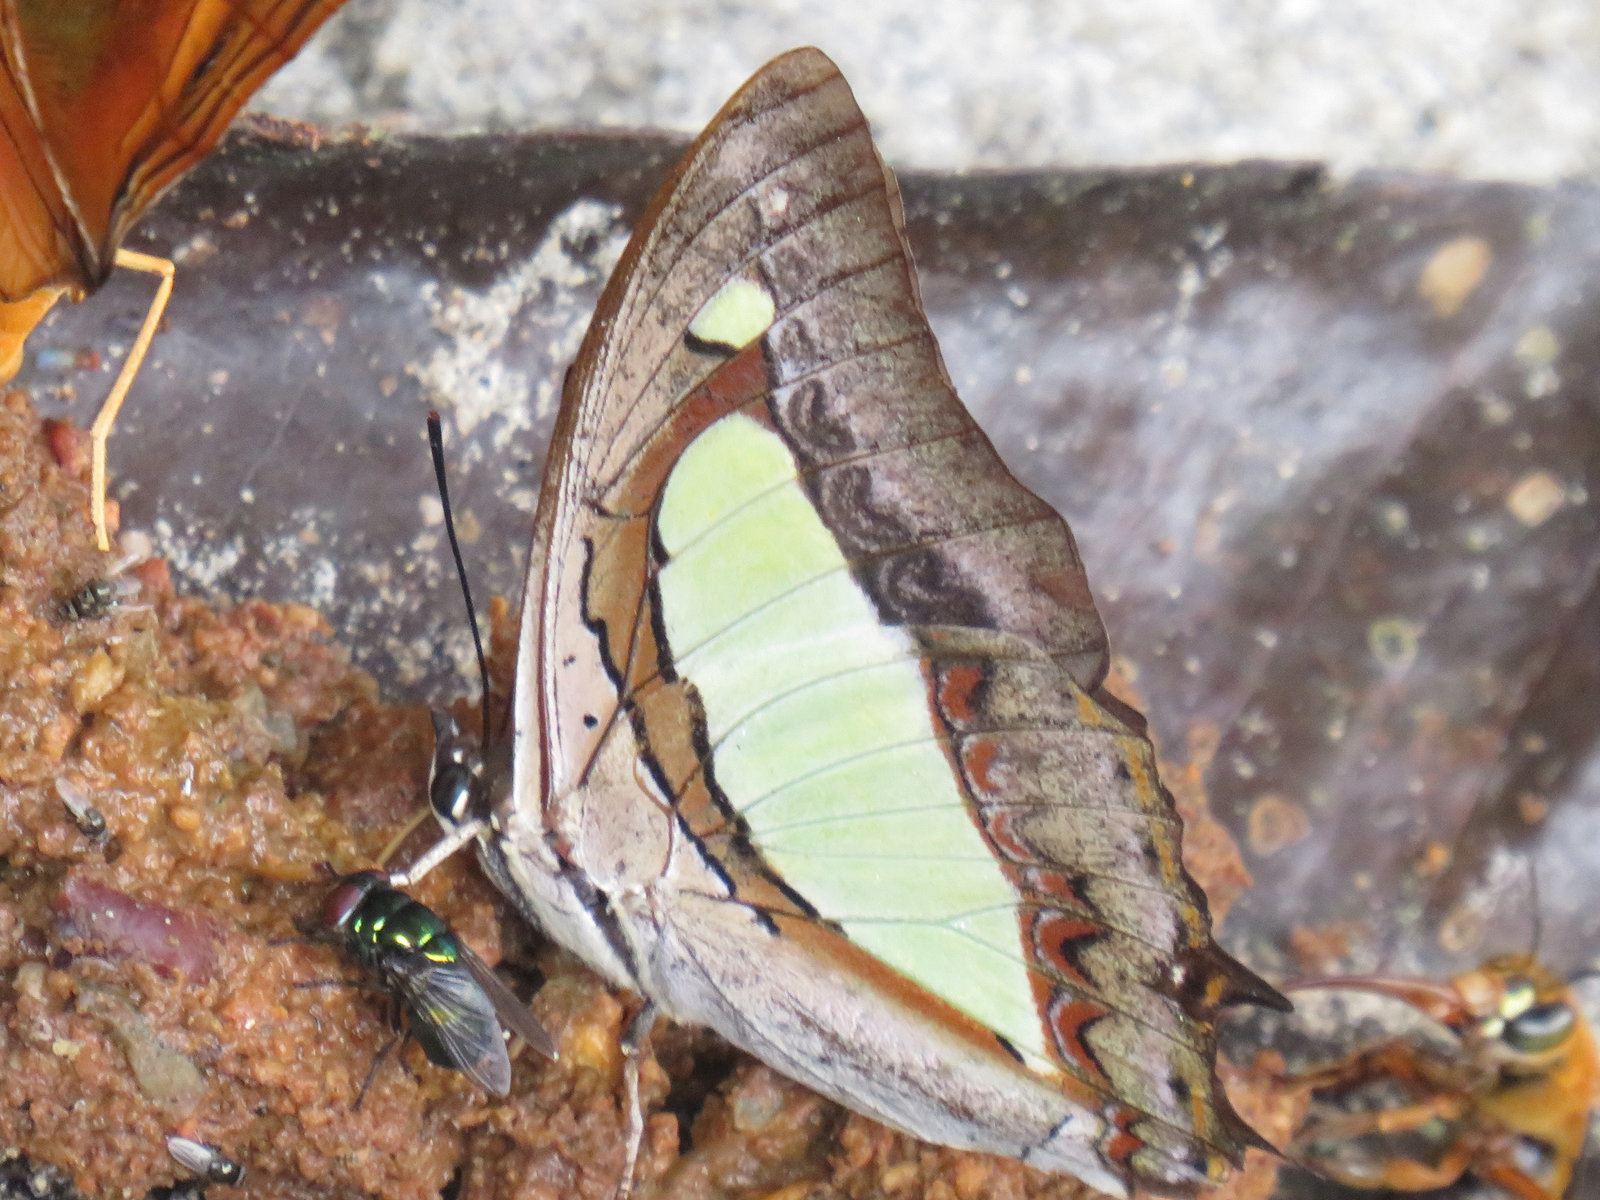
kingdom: Animalia
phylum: Arthropoda
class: Insecta
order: Lepidoptera
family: Nymphalidae
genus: Polyura
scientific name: Polyura
